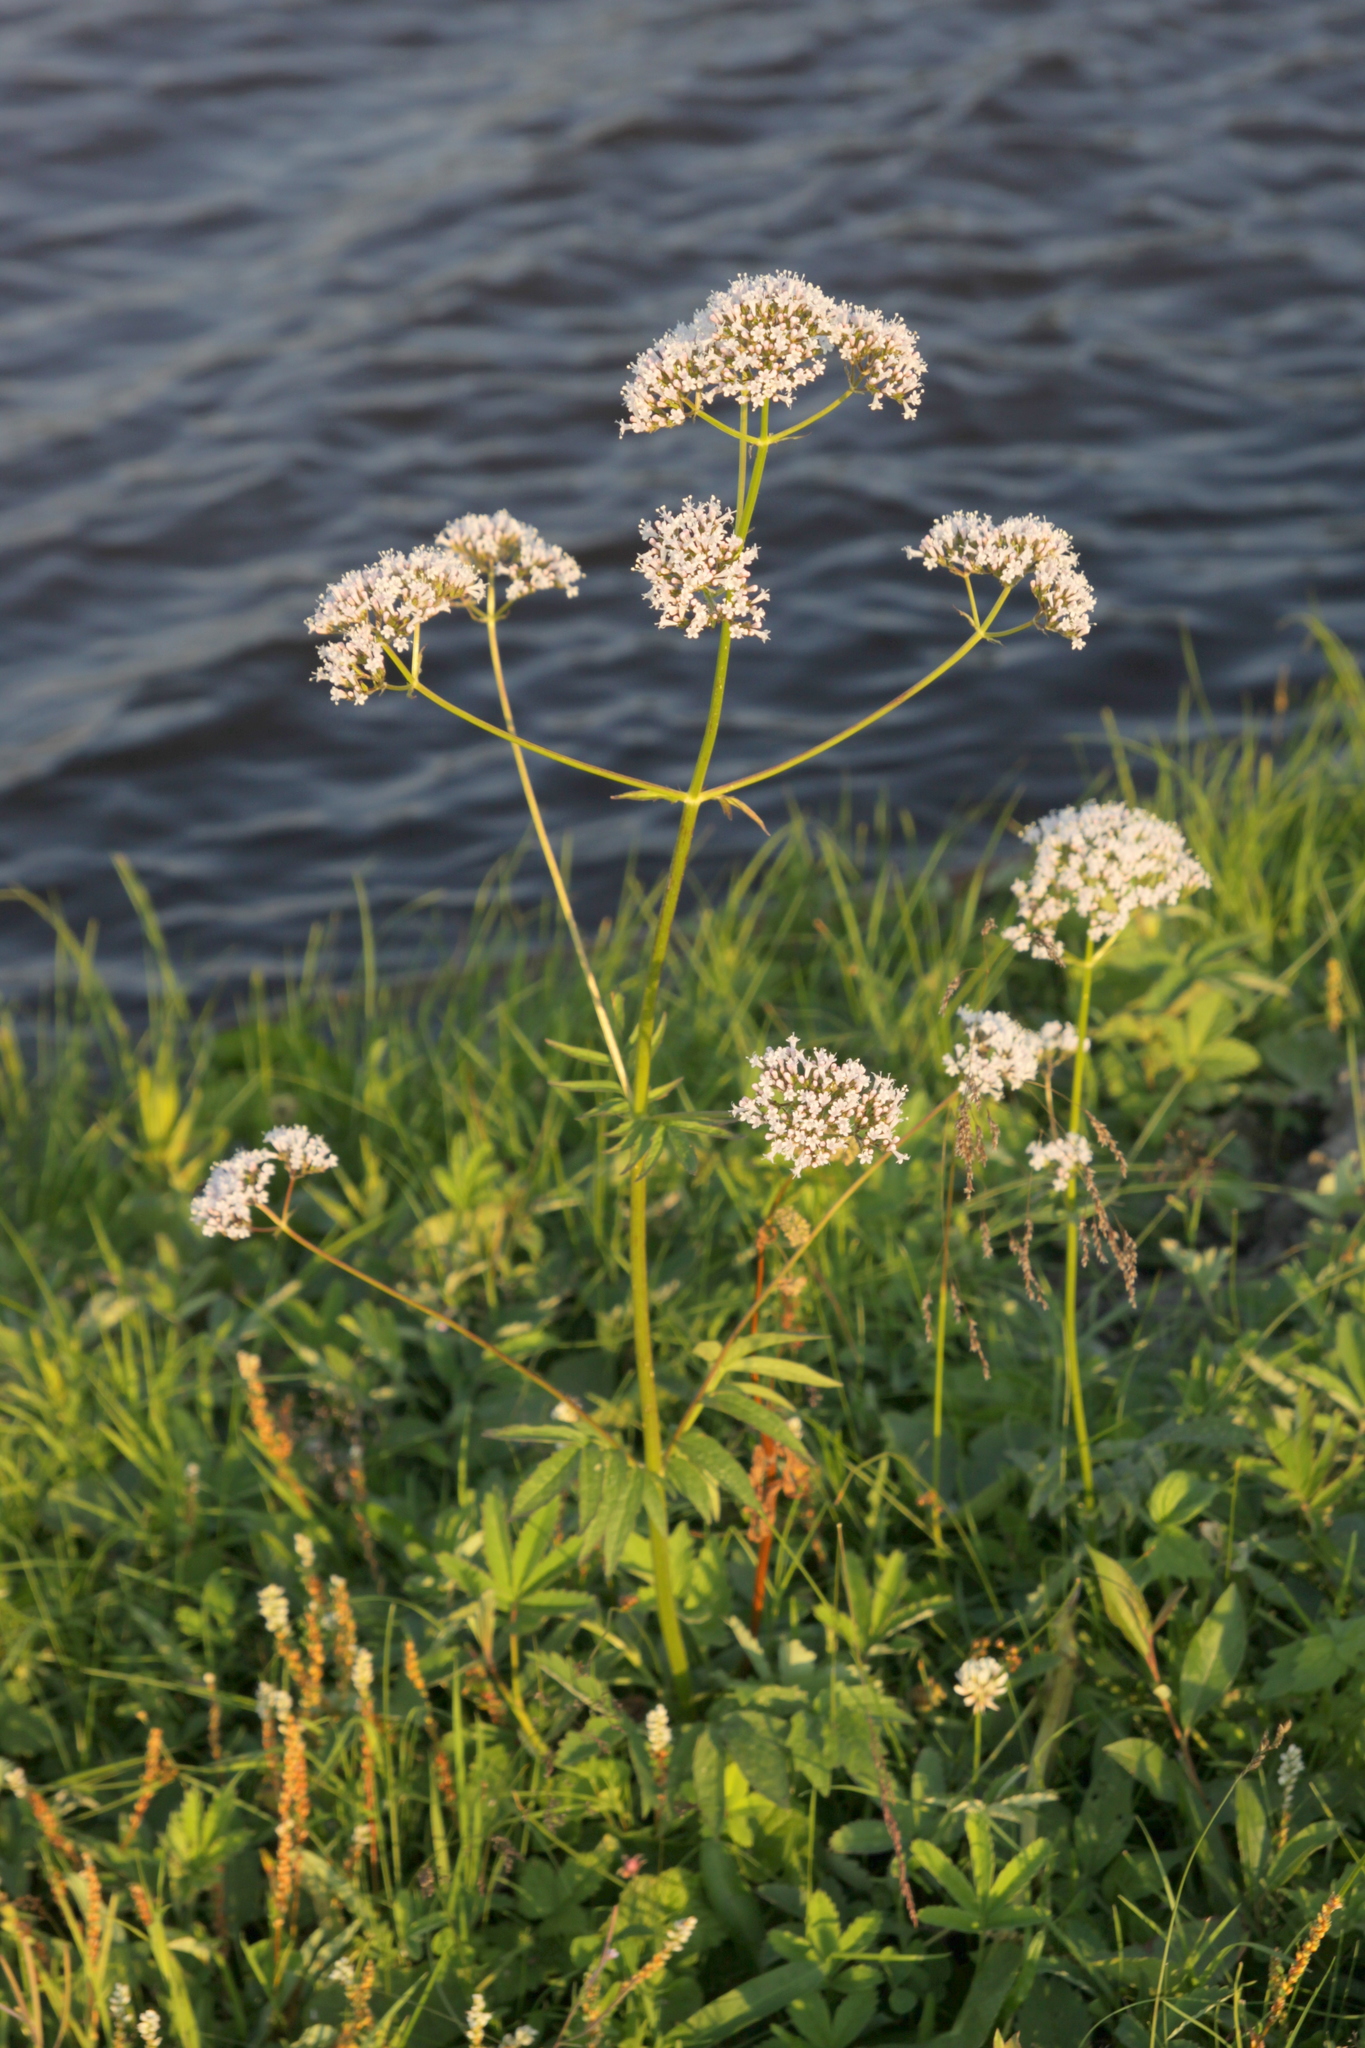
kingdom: Plantae
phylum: Tracheophyta
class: Magnoliopsida
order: Dipsacales
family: Caprifoliaceae
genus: Valeriana
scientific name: Valeriana officinalis
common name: Common valerian
